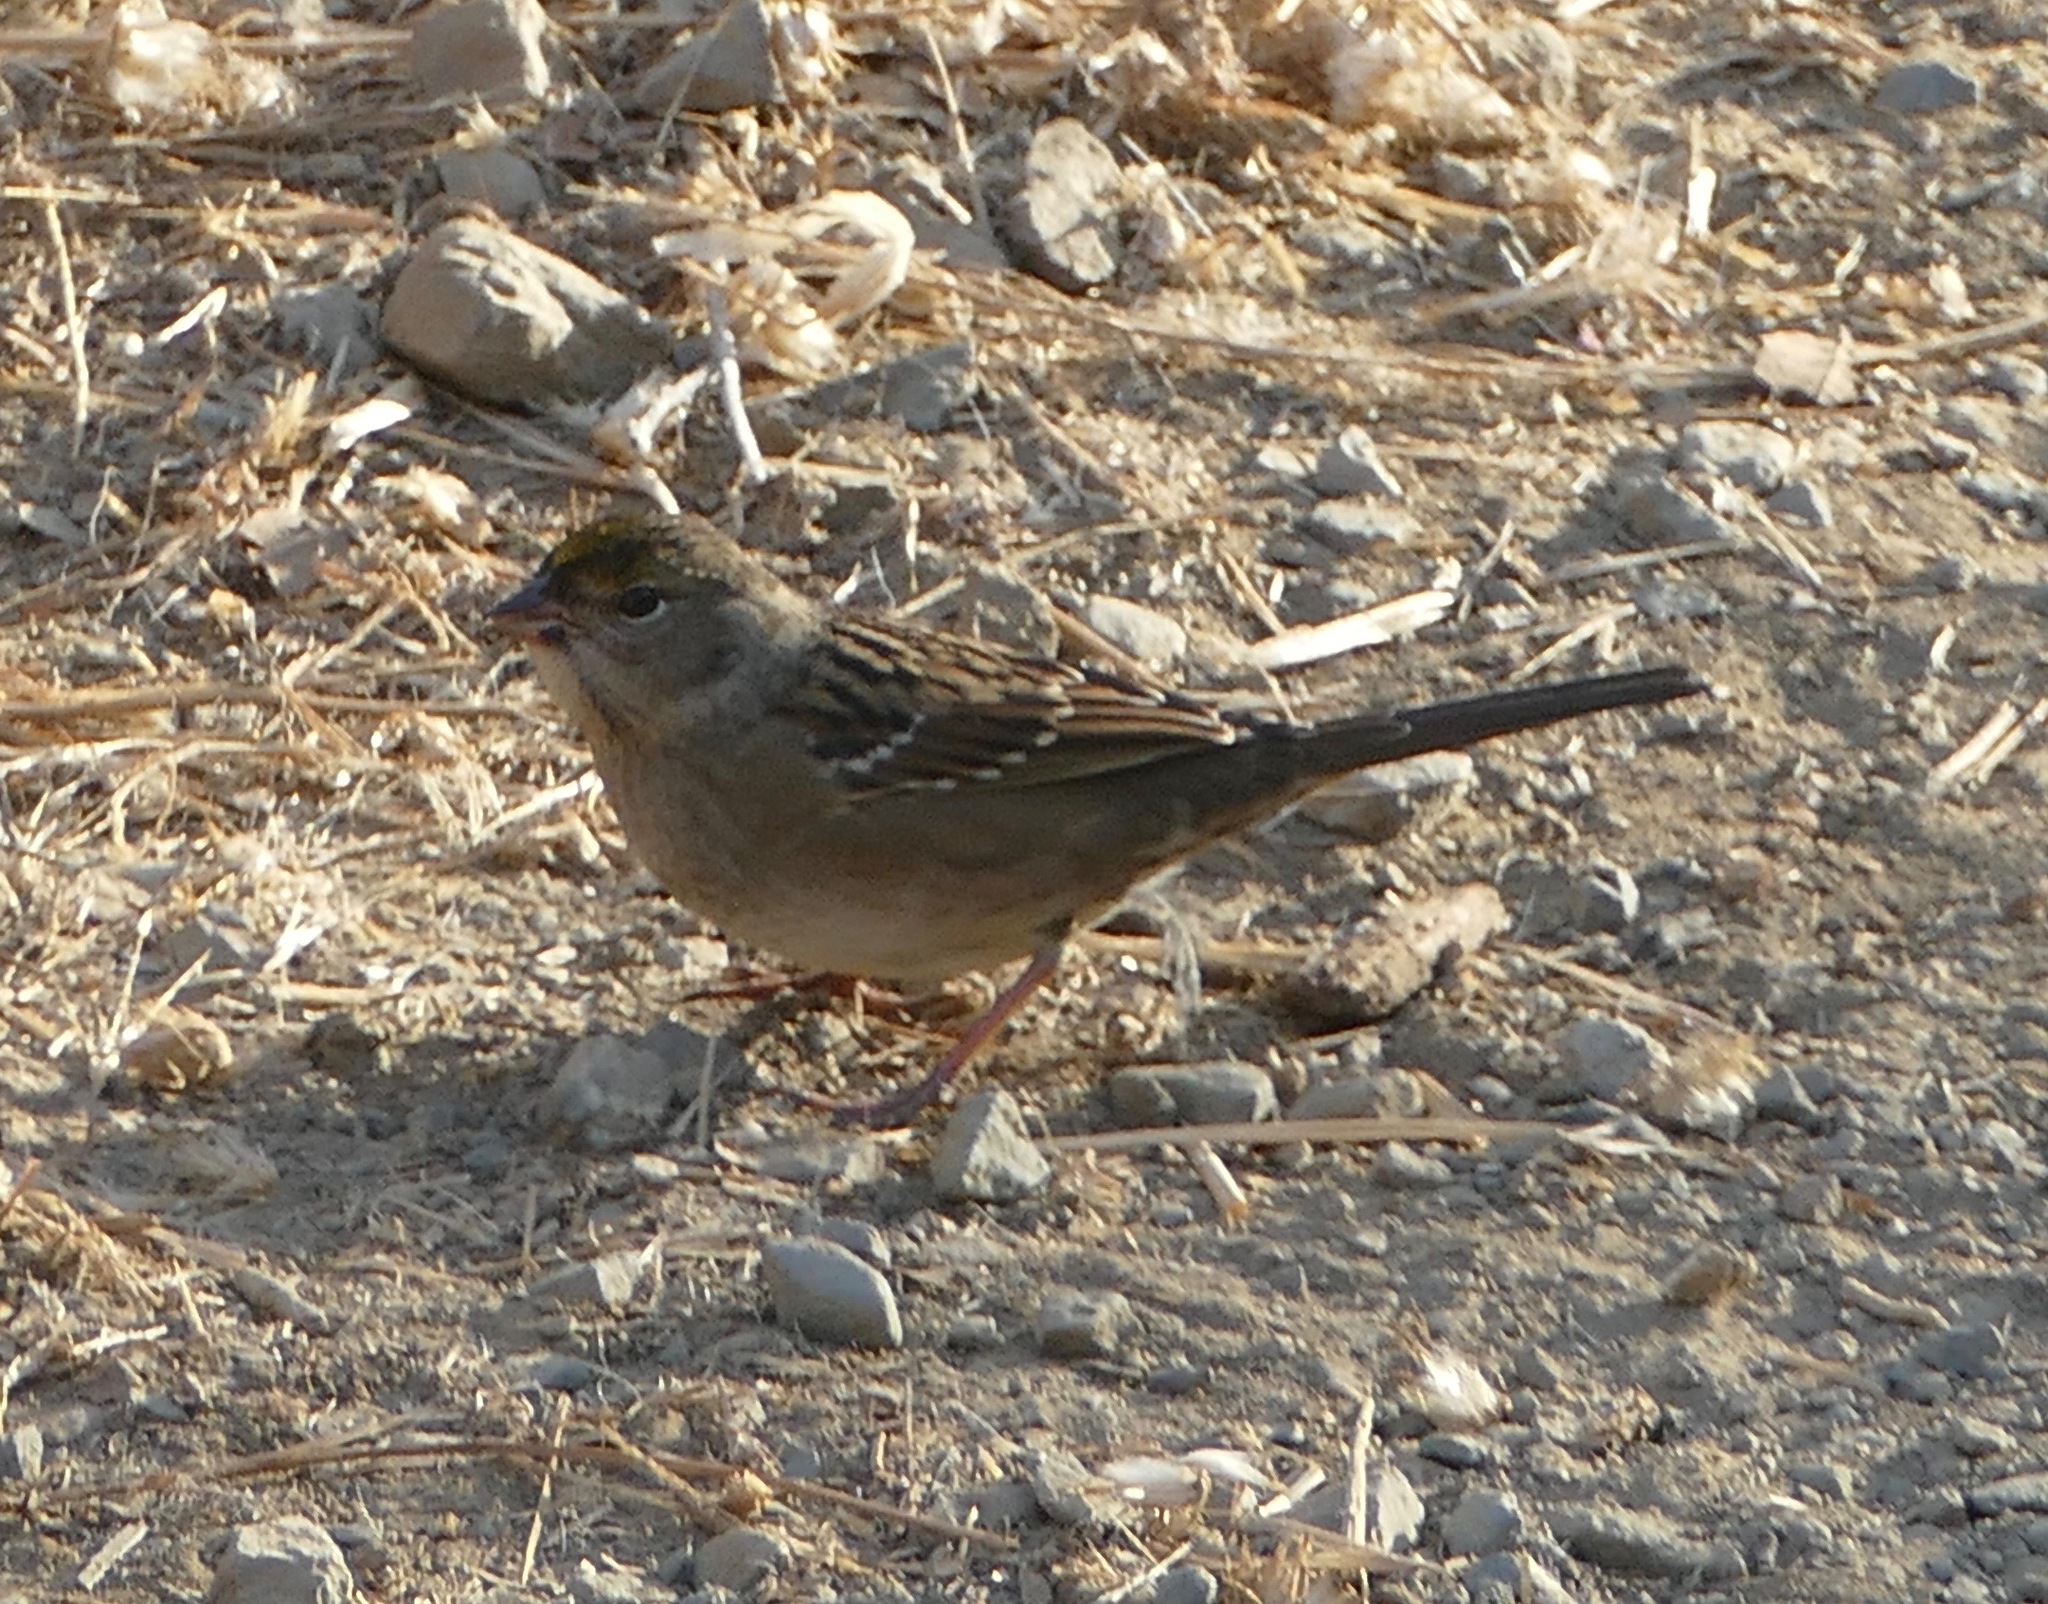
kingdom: Animalia
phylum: Chordata
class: Aves
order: Passeriformes
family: Passerellidae
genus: Zonotrichia
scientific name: Zonotrichia atricapilla
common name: Golden-crowned sparrow
